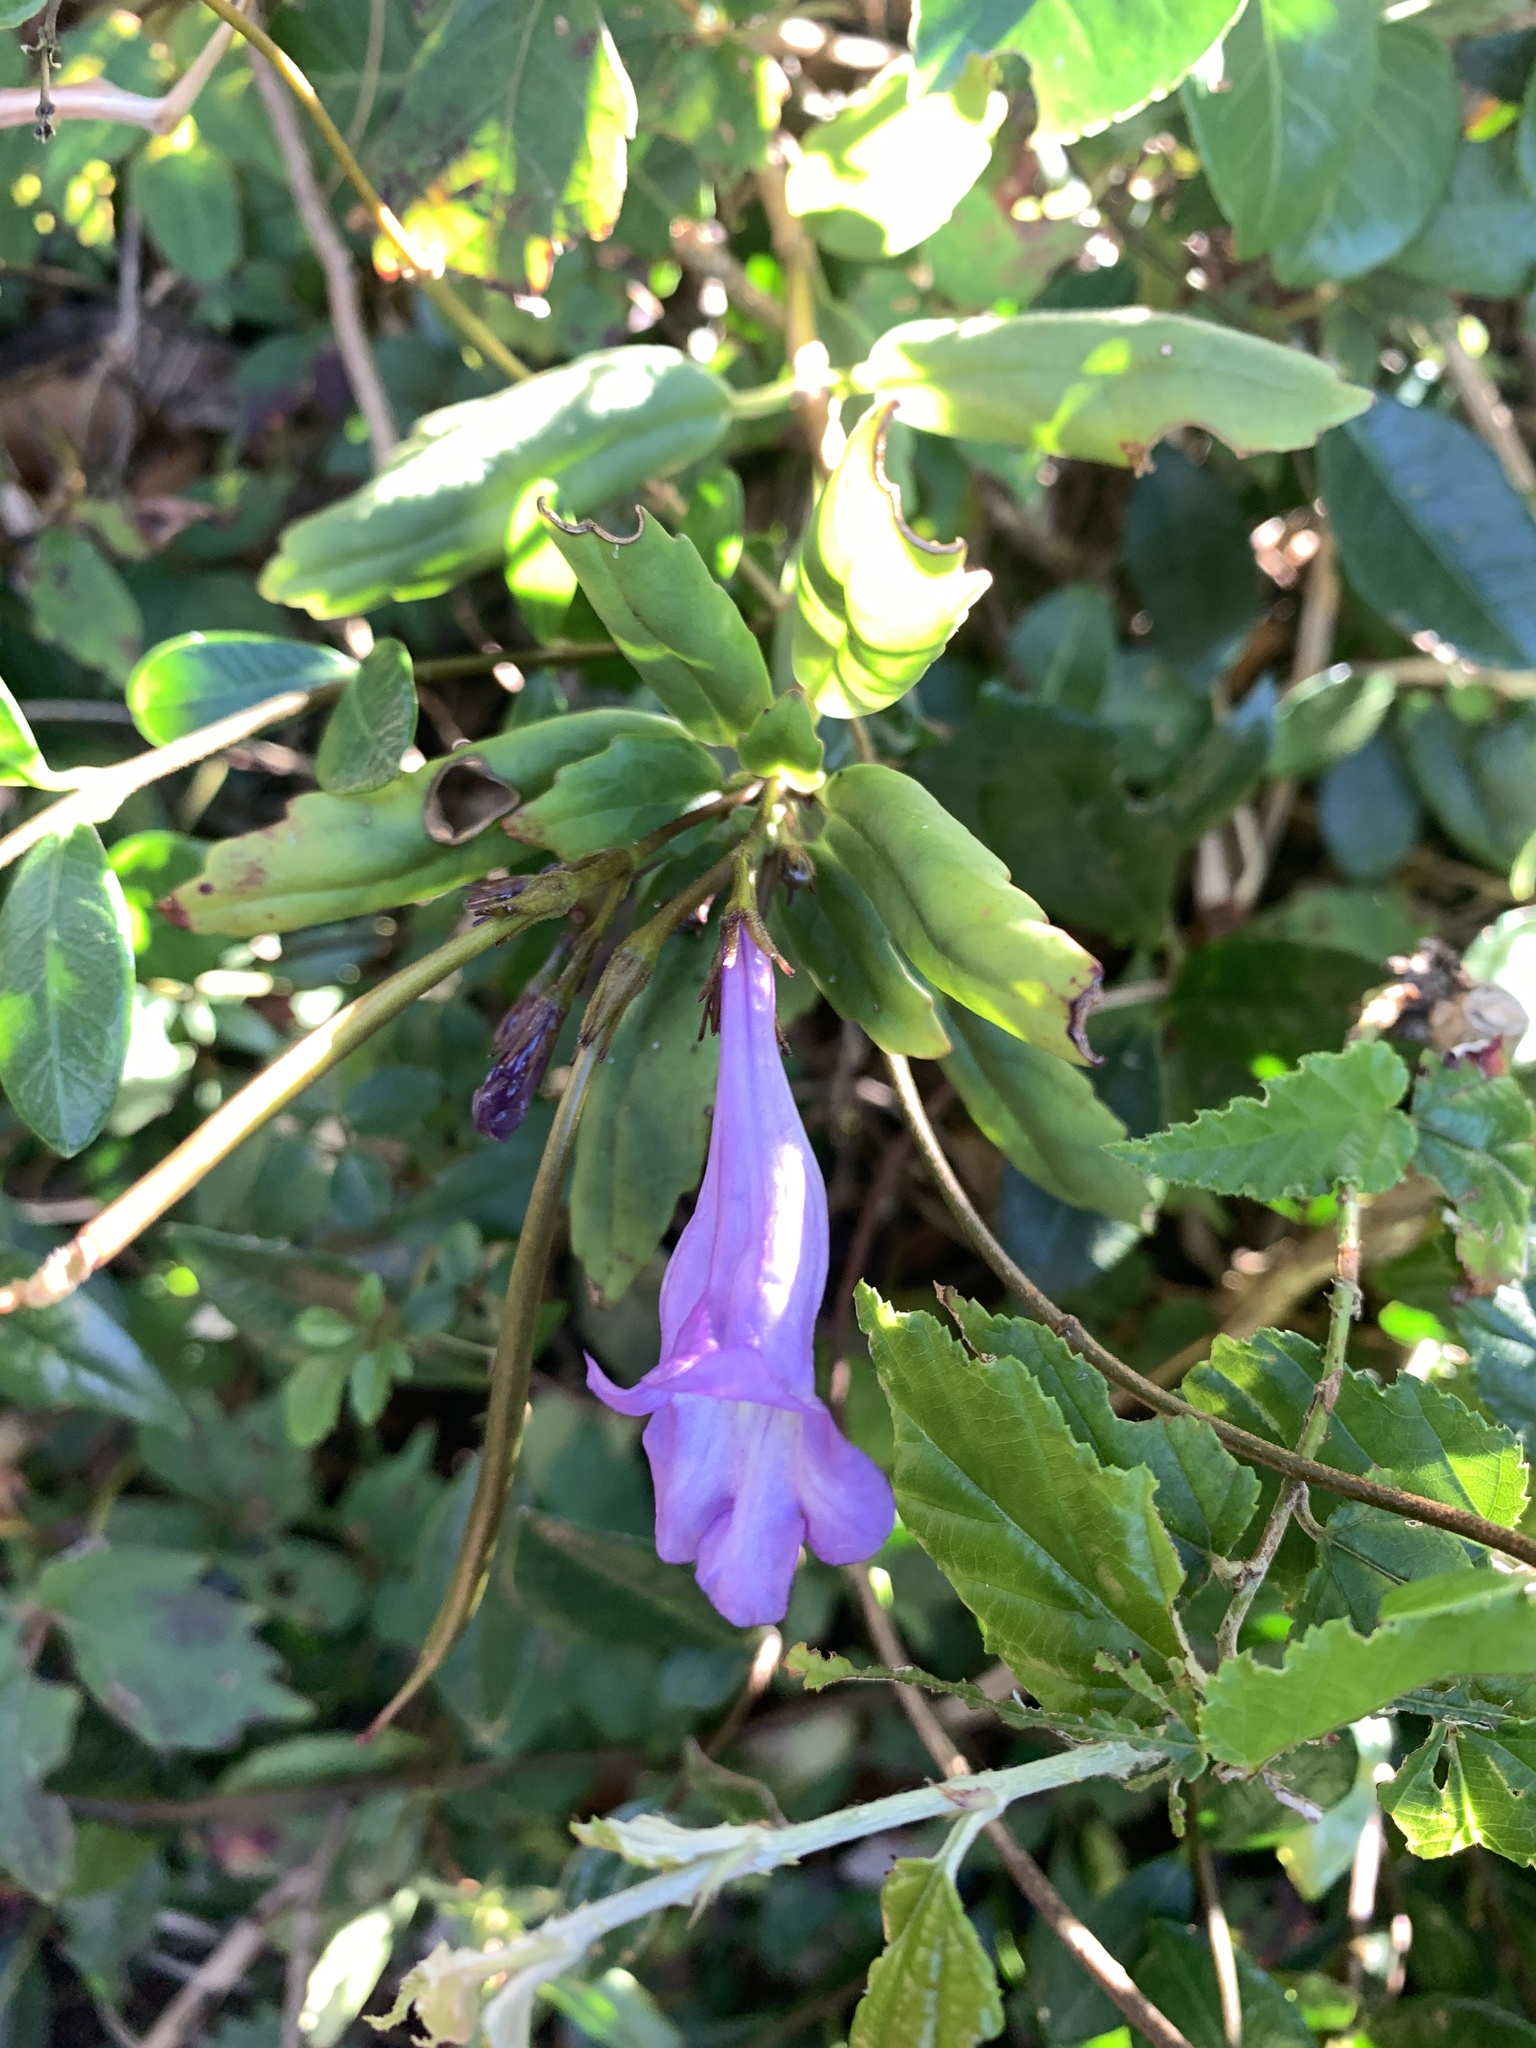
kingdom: Plantae
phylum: Tracheophyta
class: Magnoliopsida
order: Lamiales
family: Gesneriaceae
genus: Lysionotus
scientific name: Lysionotus pauciflorus
